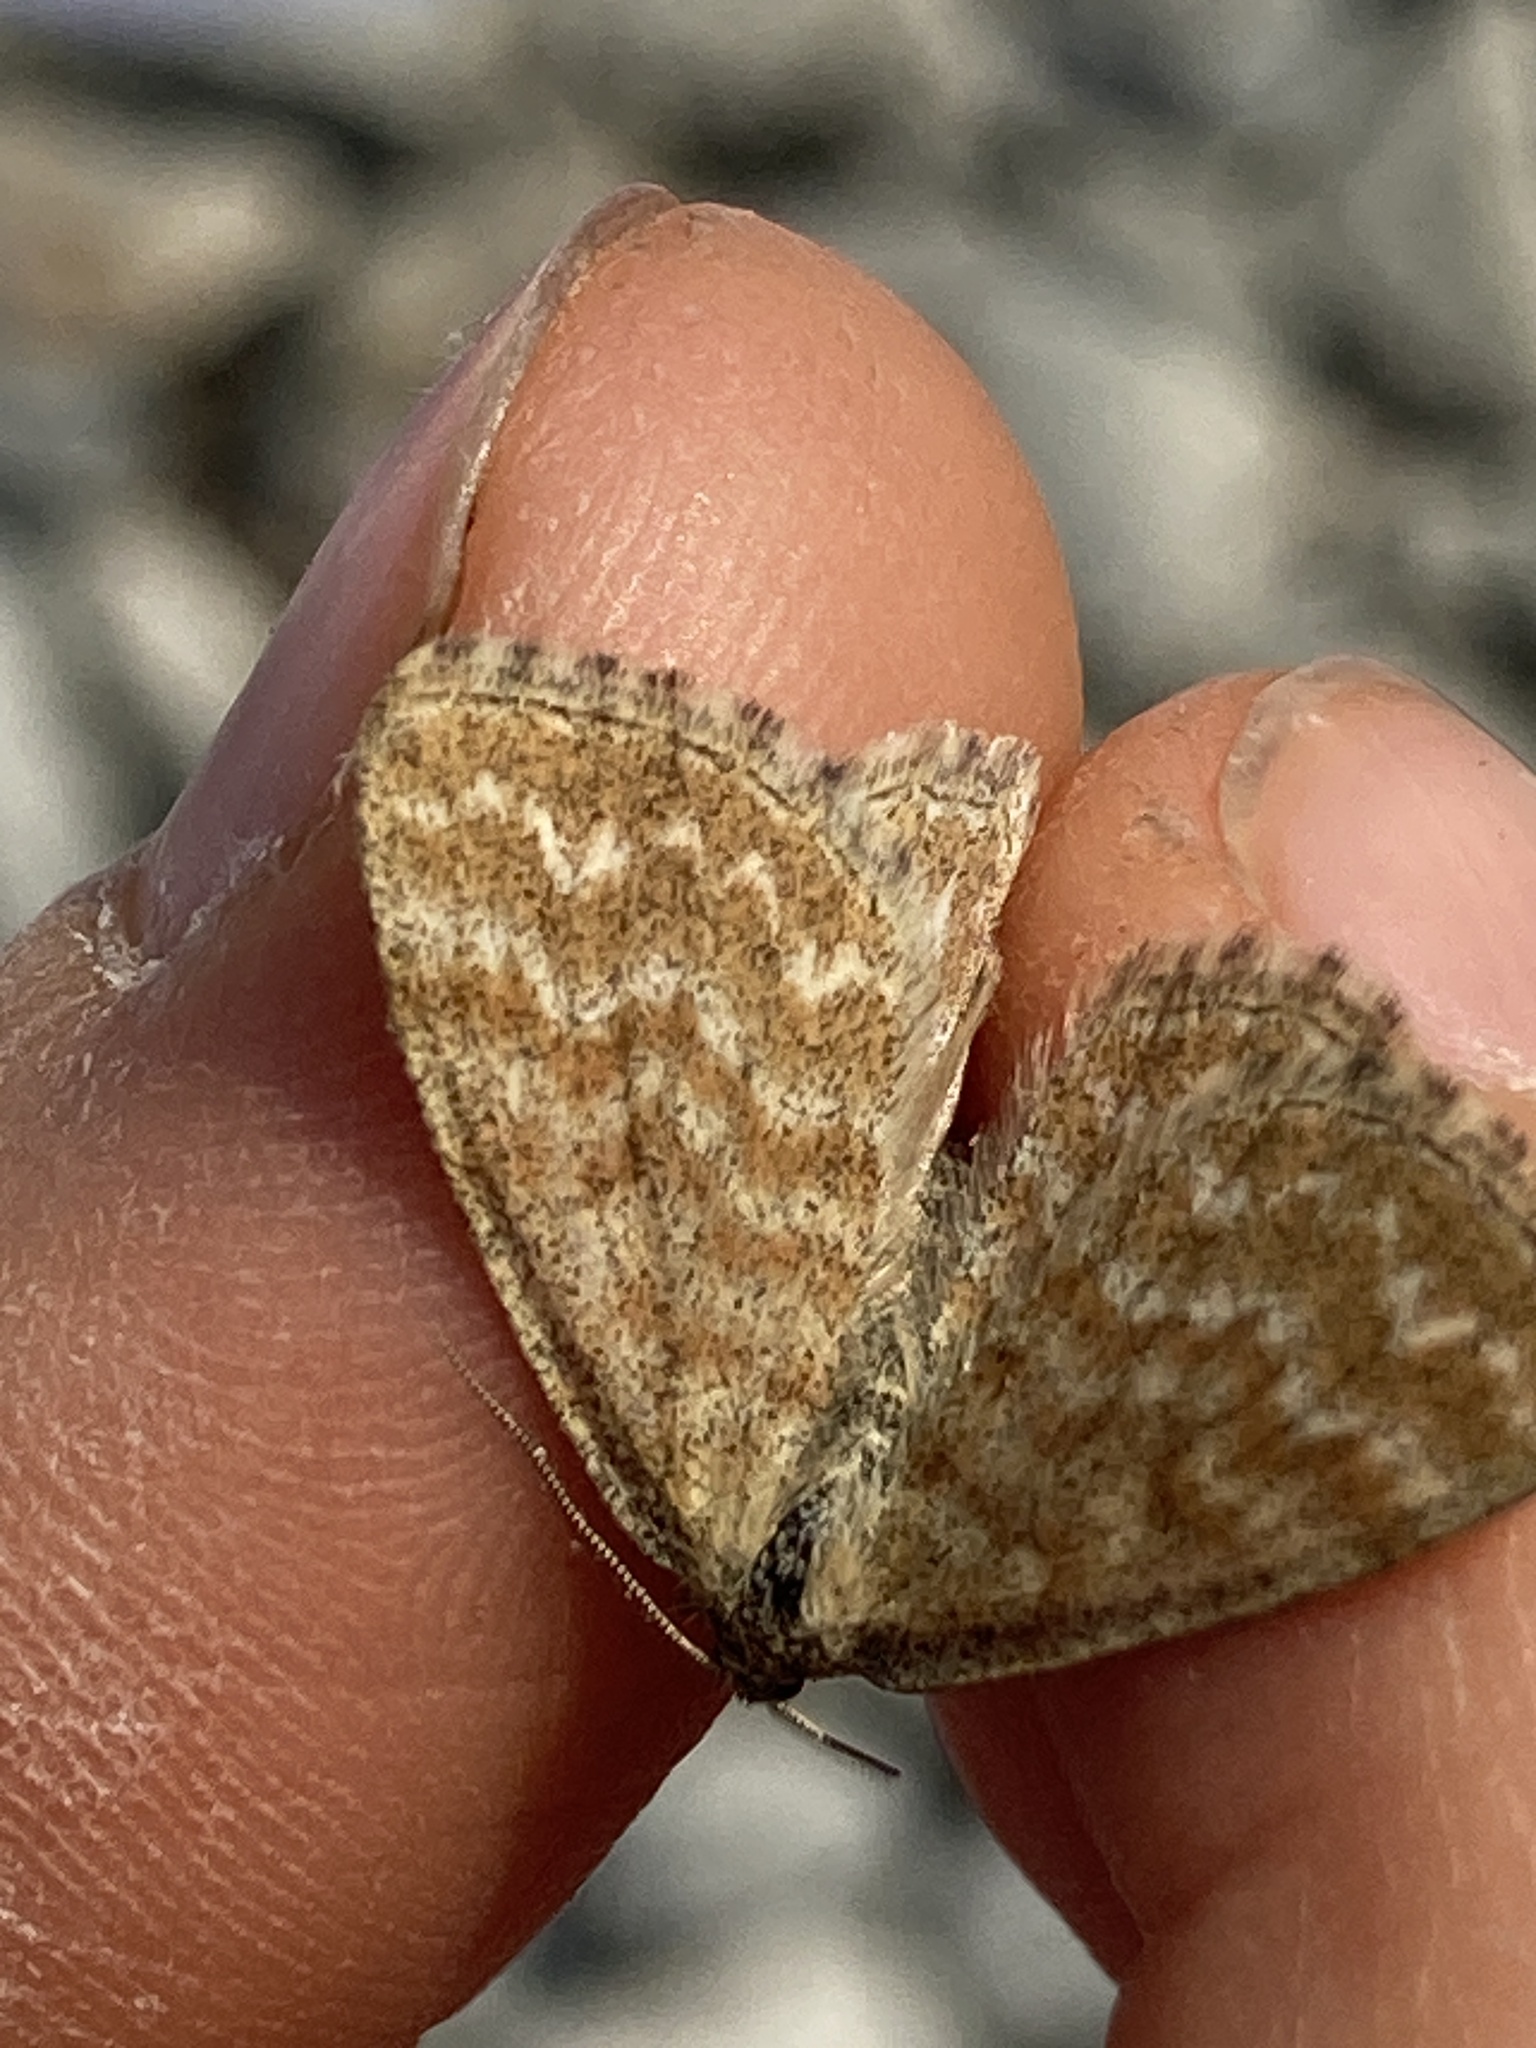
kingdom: Animalia
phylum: Arthropoda
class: Insecta
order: Lepidoptera
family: Geometridae
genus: Scopula
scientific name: Scopula immorata
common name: Lewes wave
